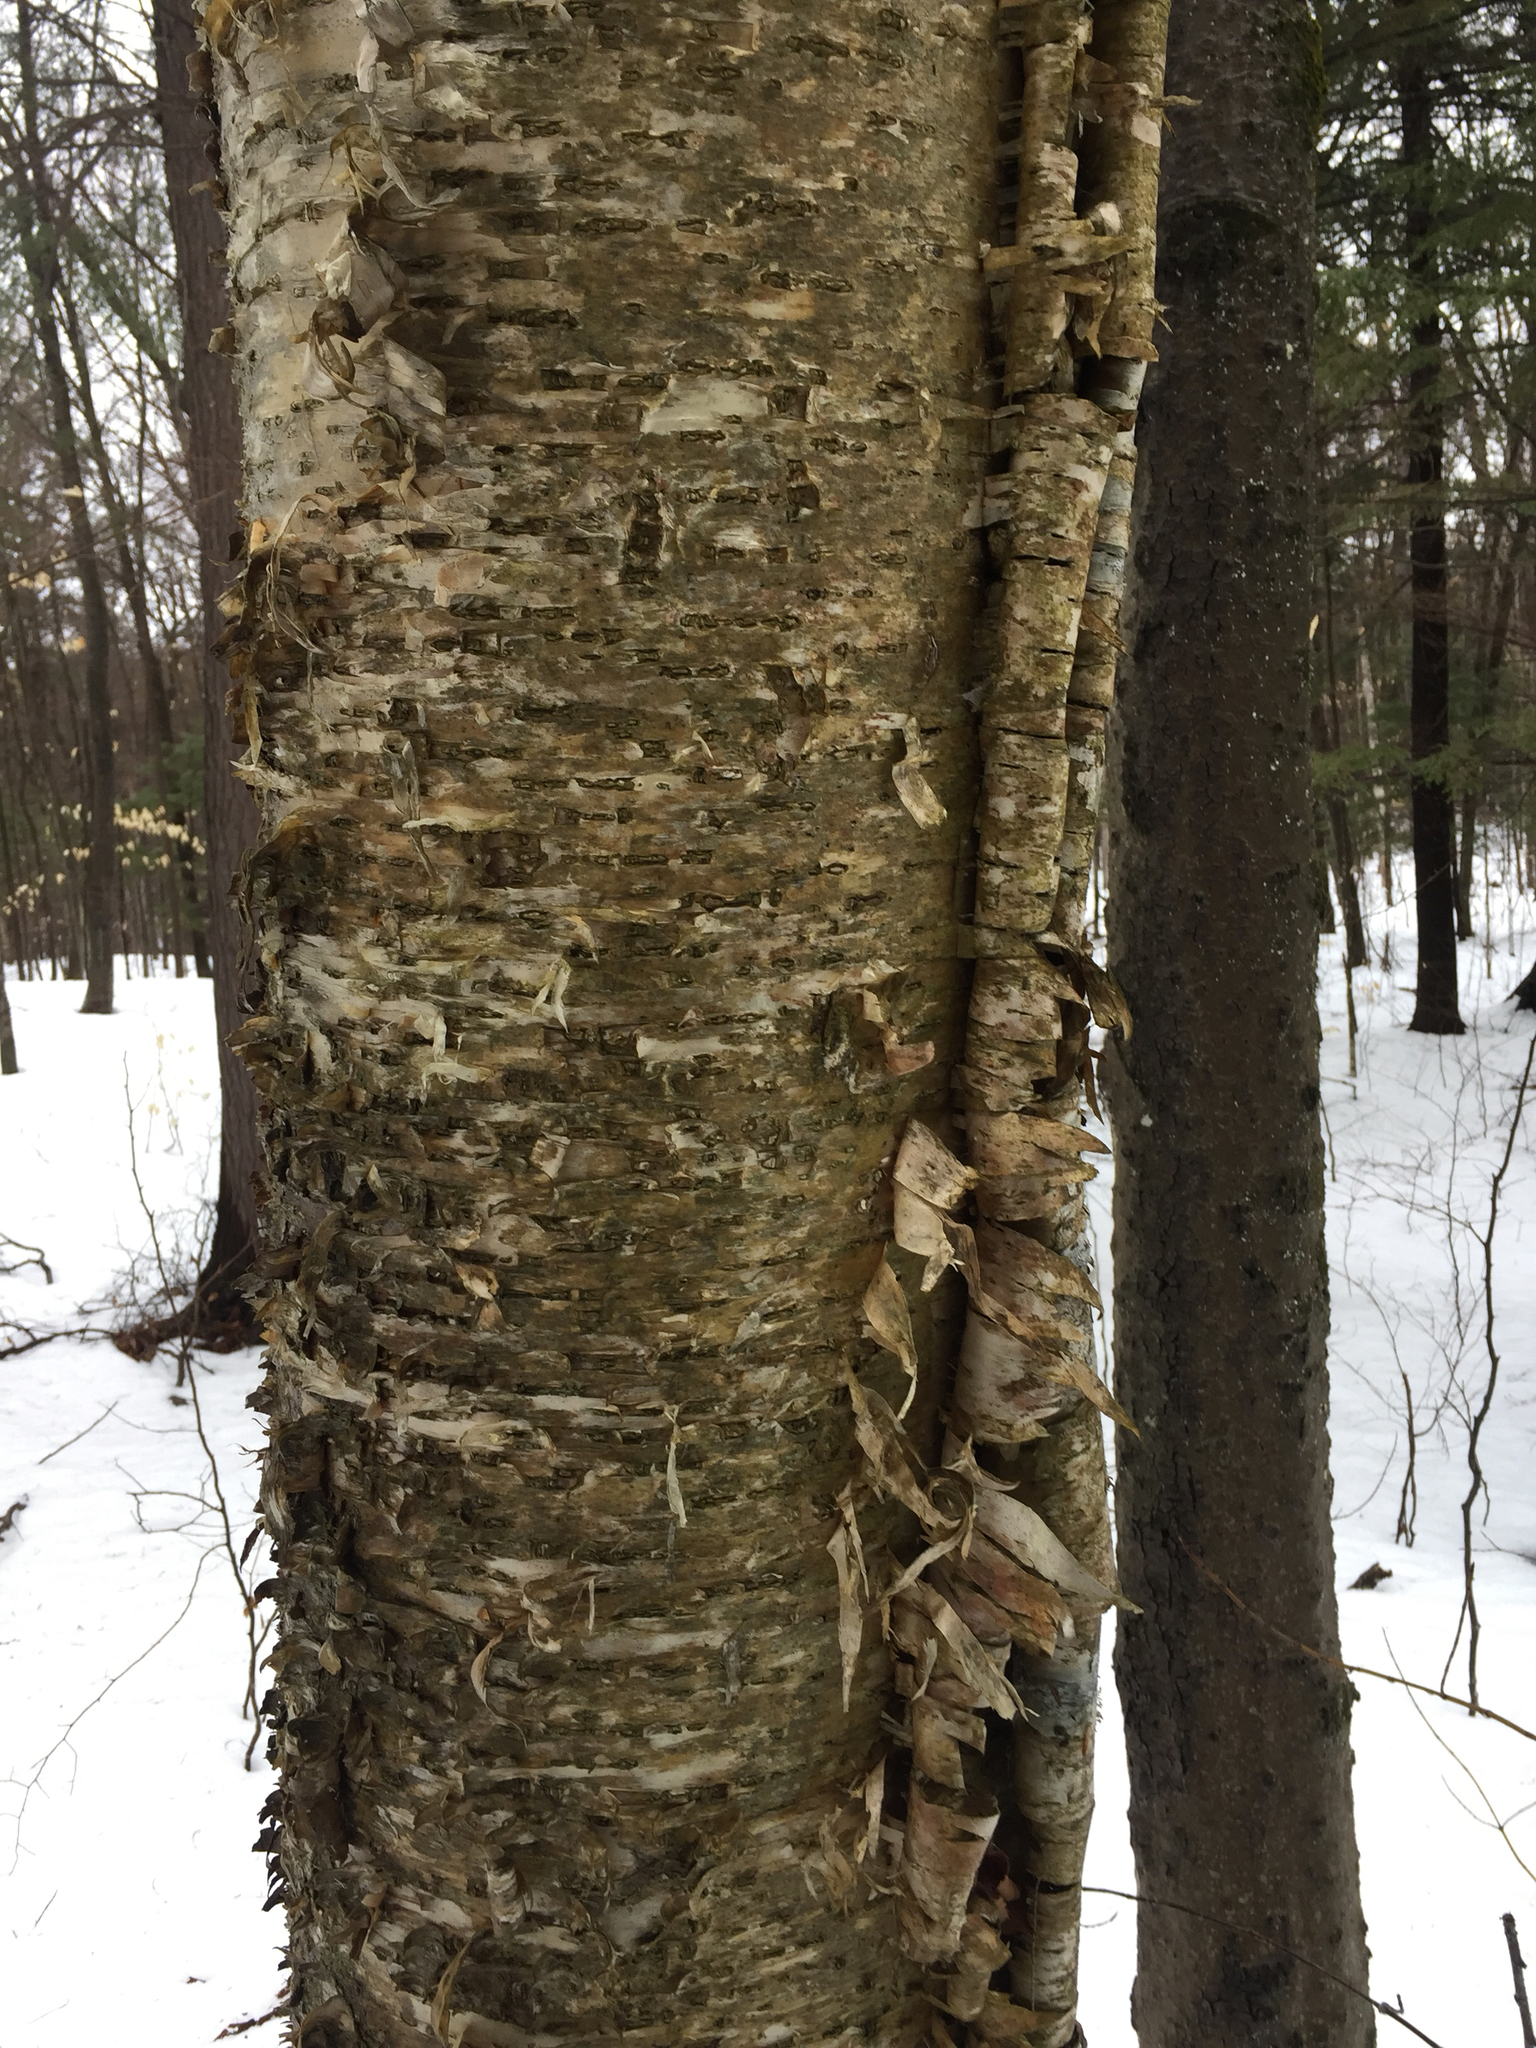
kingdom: Plantae
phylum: Tracheophyta
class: Magnoliopsida
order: Fagales
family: Betulaceae
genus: Betula
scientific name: Betula alleghaniensis
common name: Yellow birch
